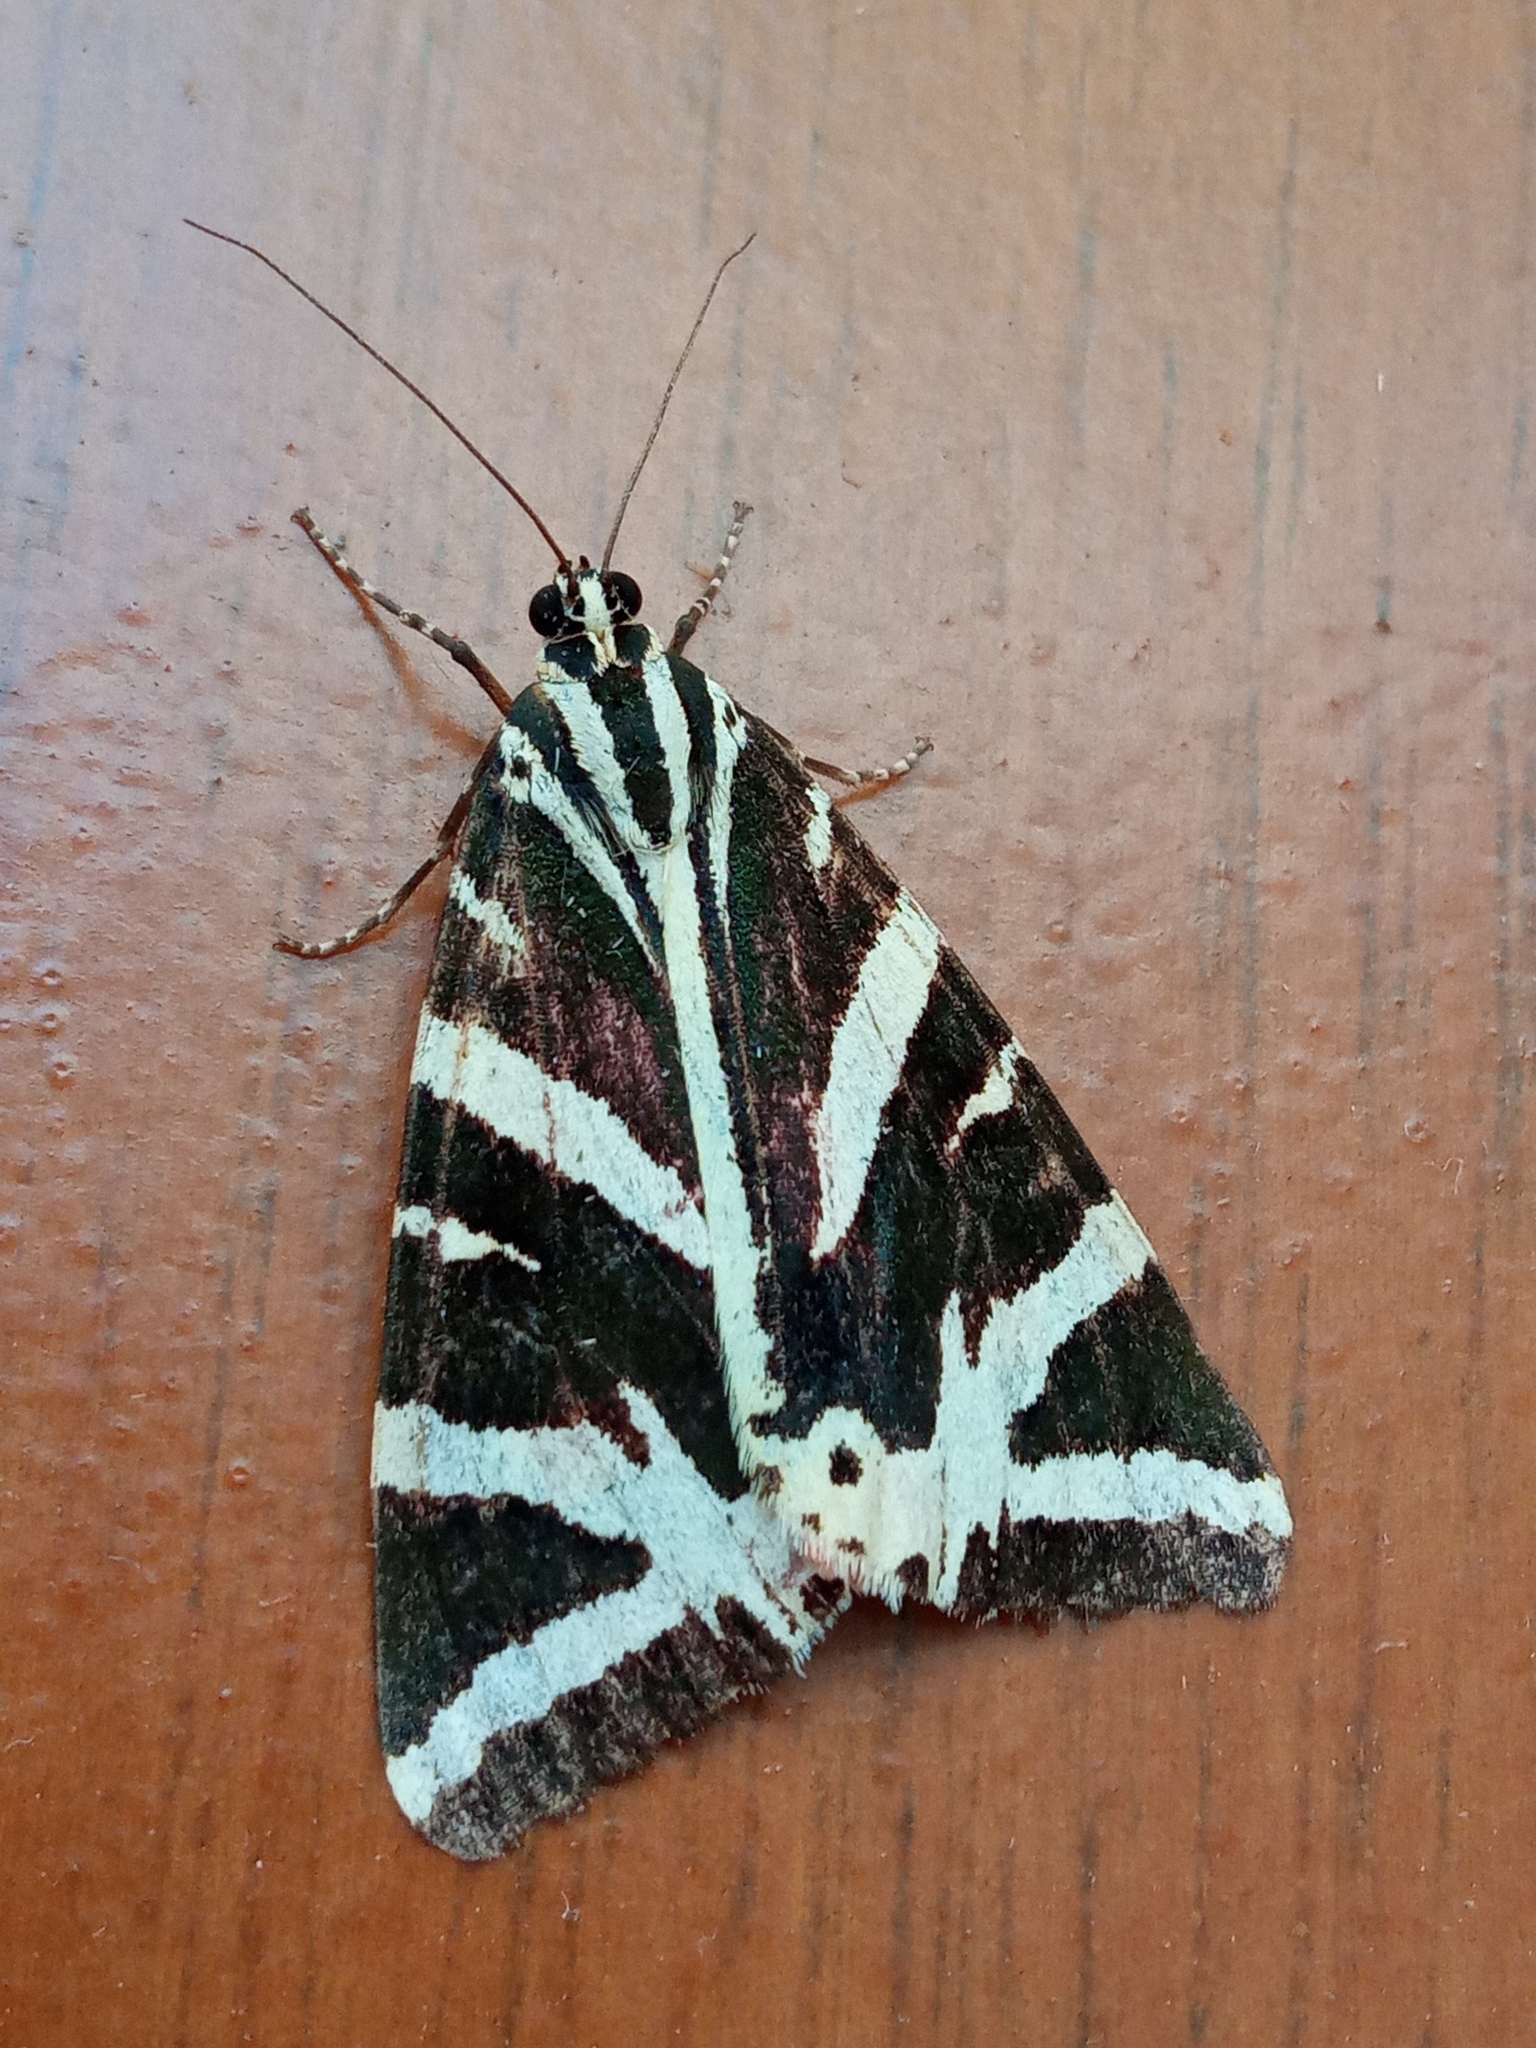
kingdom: Animalia
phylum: Arthropoda
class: Insecta
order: Lepidoptera
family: Erebidae
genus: Euplagia
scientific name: Euplagia quadripunctaria
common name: Jersey tiger
